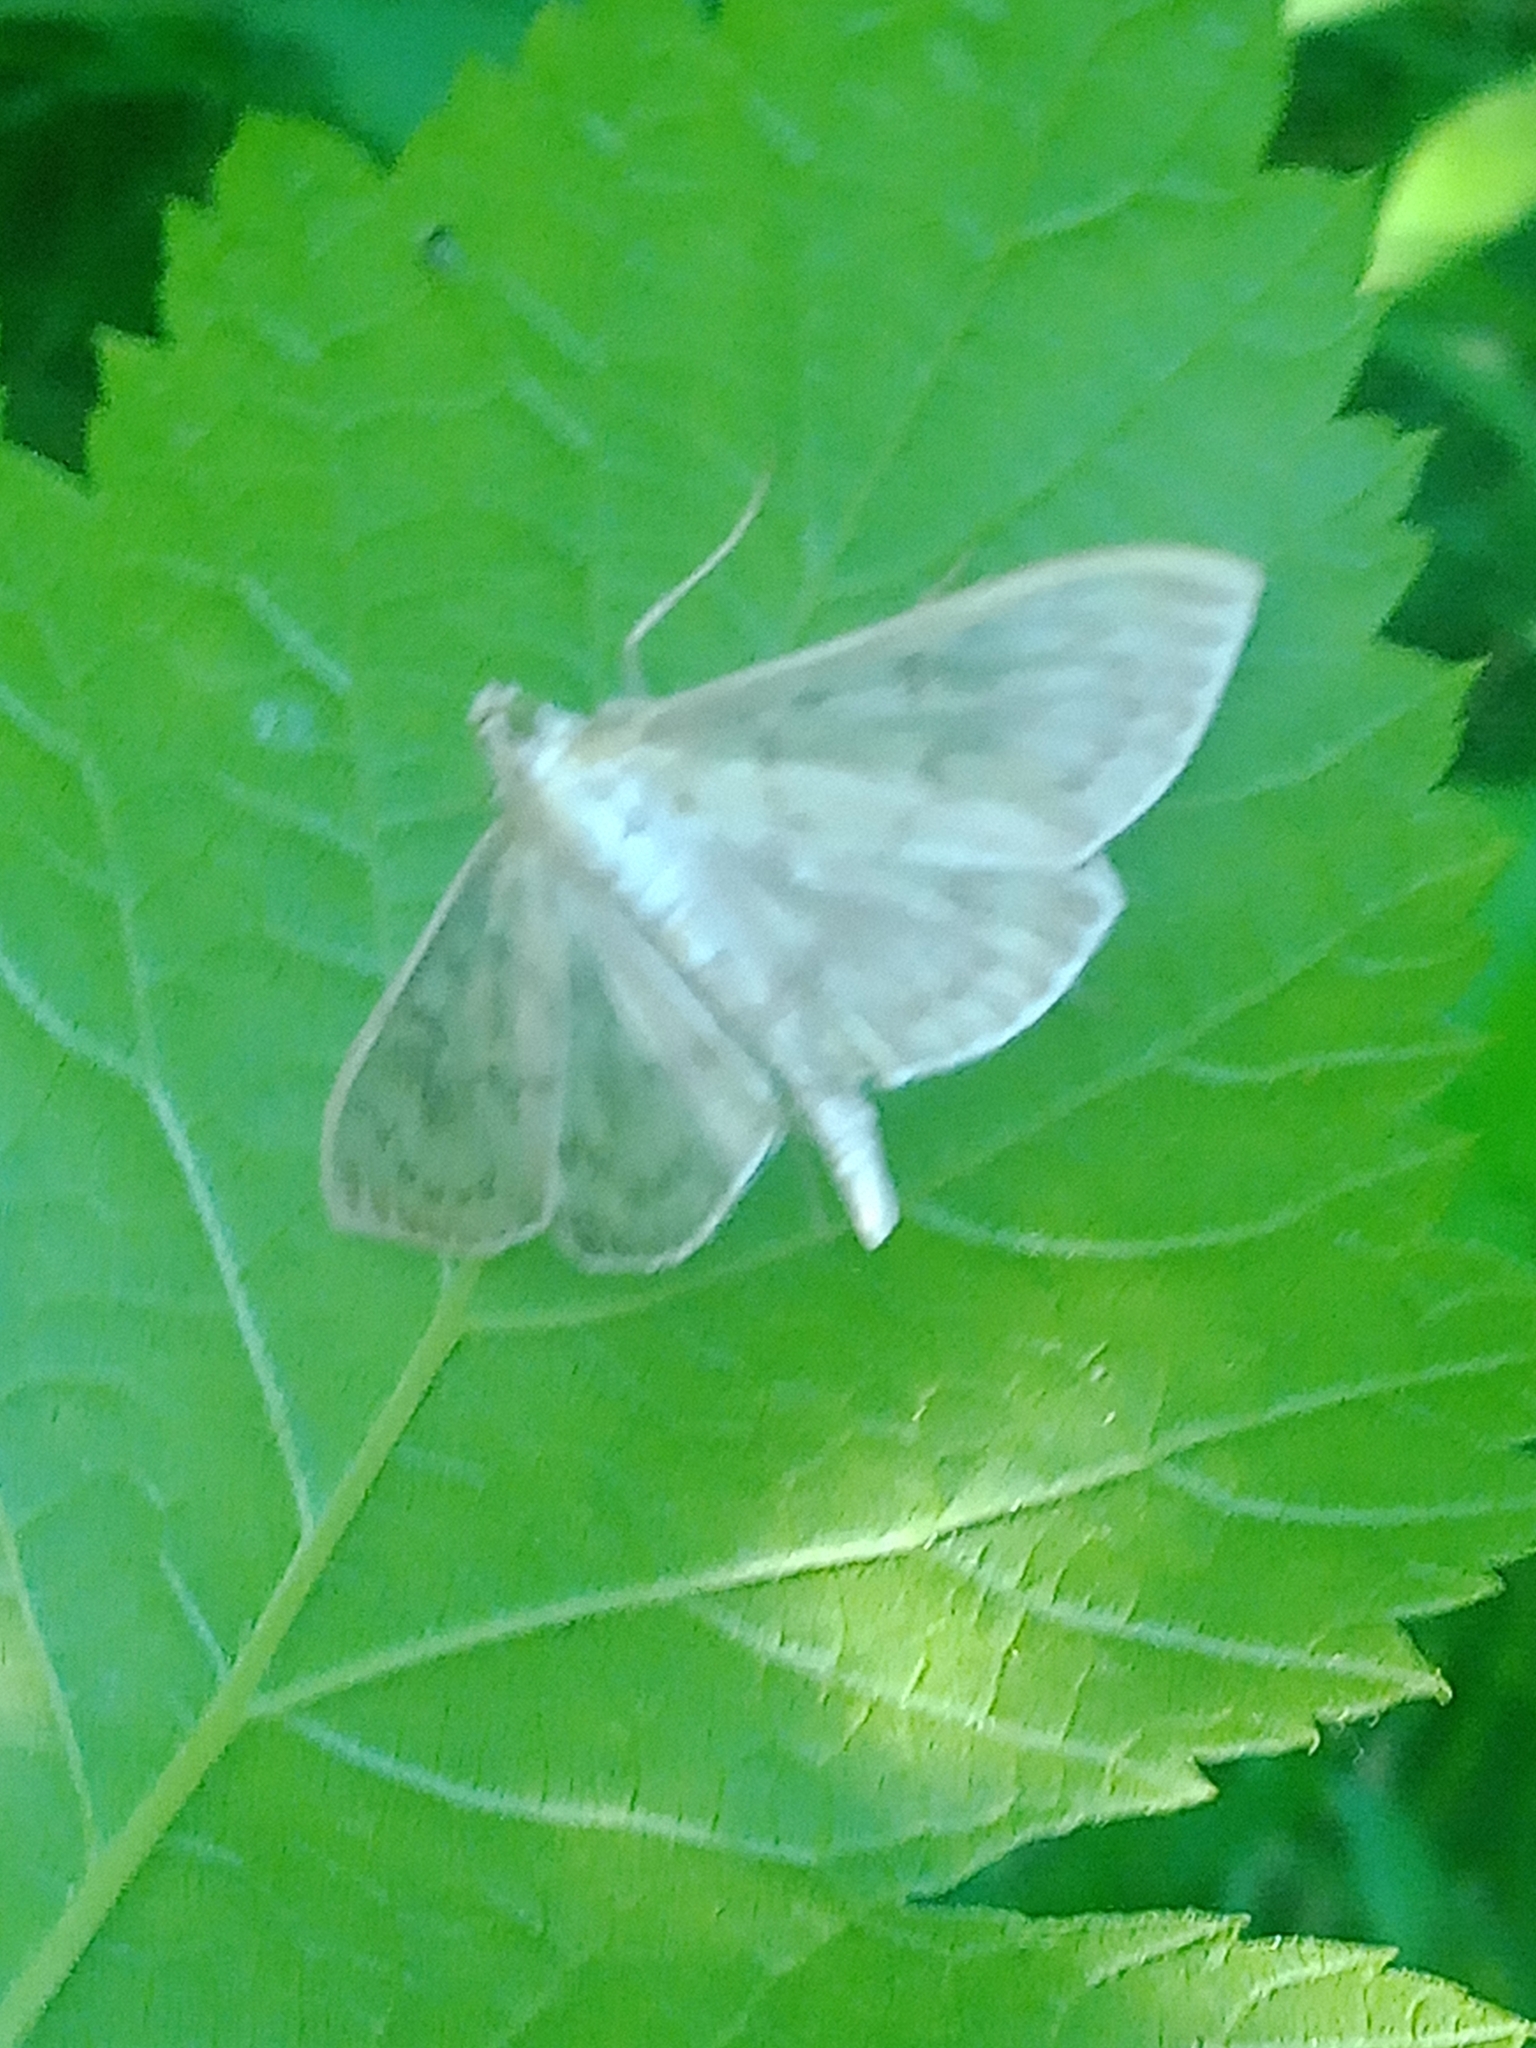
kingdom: Animalia
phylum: Arthropoda
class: Insecta
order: Lepidoptera
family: Crambidae
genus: Patania
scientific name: Patania ruralis
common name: Mother of pearl
